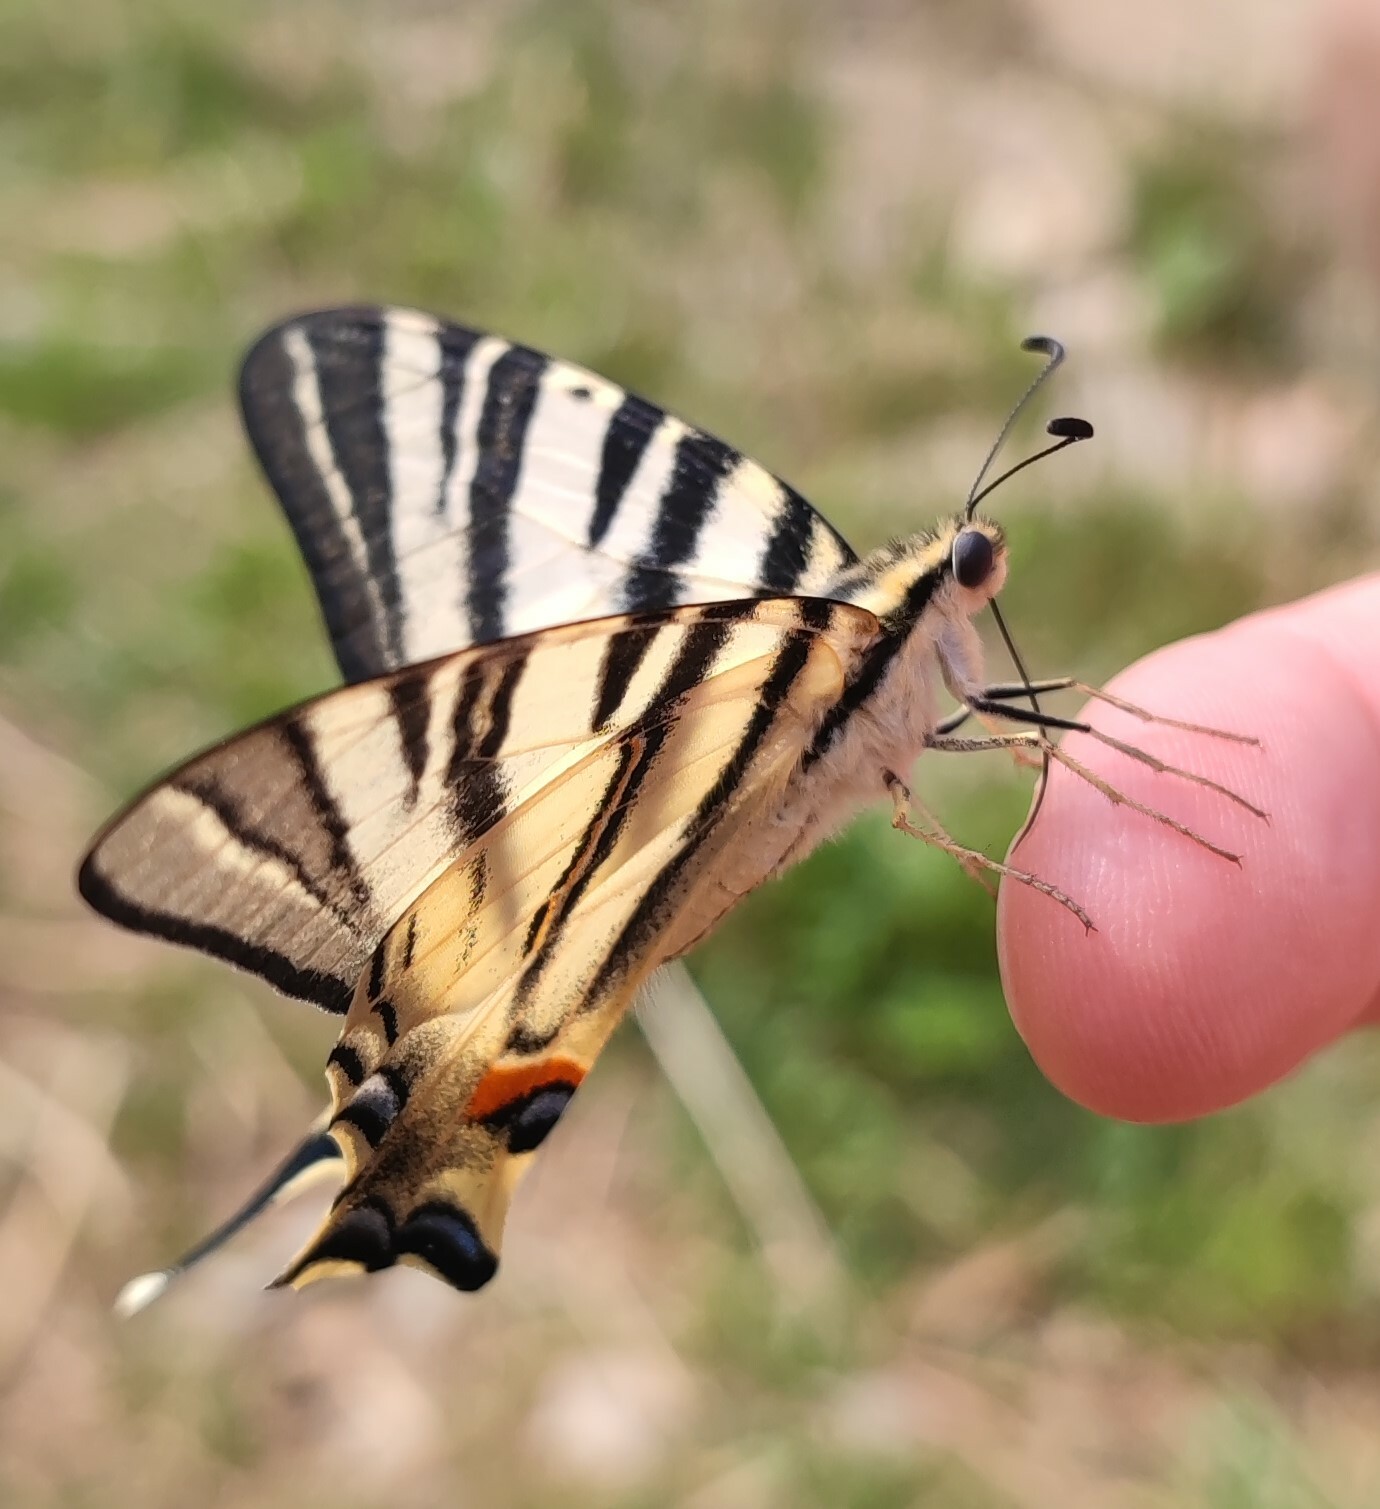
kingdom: Animalia
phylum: Arthropoda
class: Insecta
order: Lepidoptera
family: Papilionidae
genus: Iphiclides
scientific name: Iphiclides podalirius
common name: Scarce swallowtail
